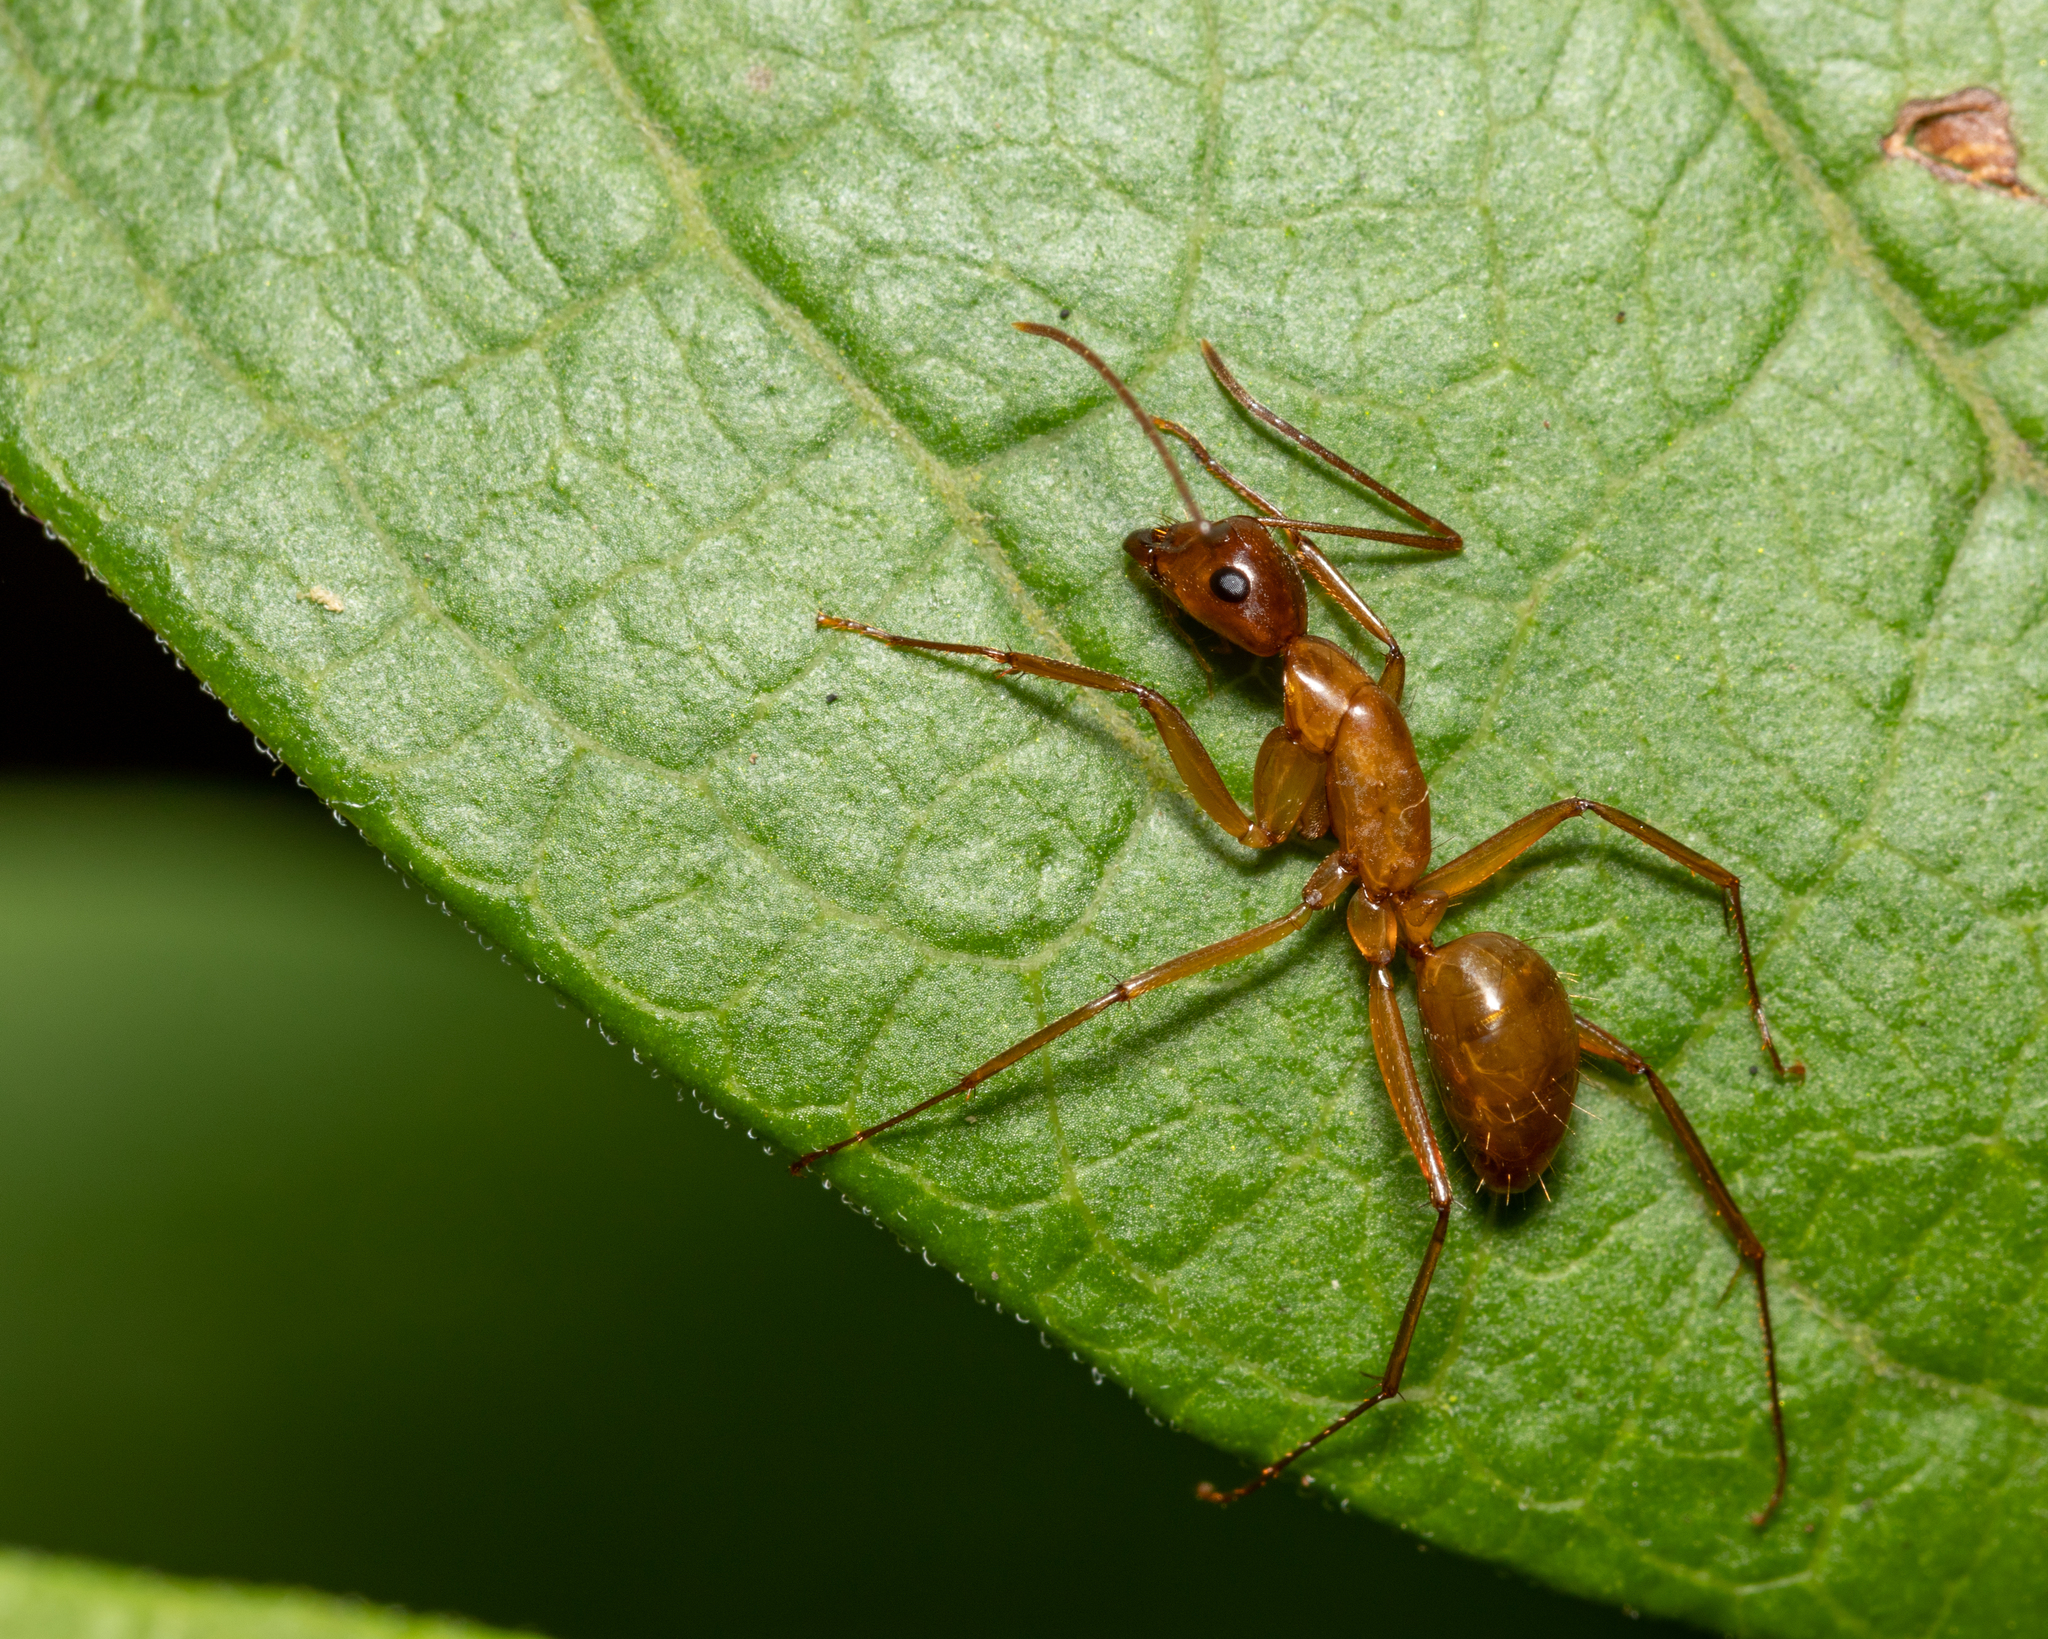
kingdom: Animalia
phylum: Arthropoda
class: Insecta
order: Hymenoptera
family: Formicidae
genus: Camponotus
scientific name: Camponotus castaneus
